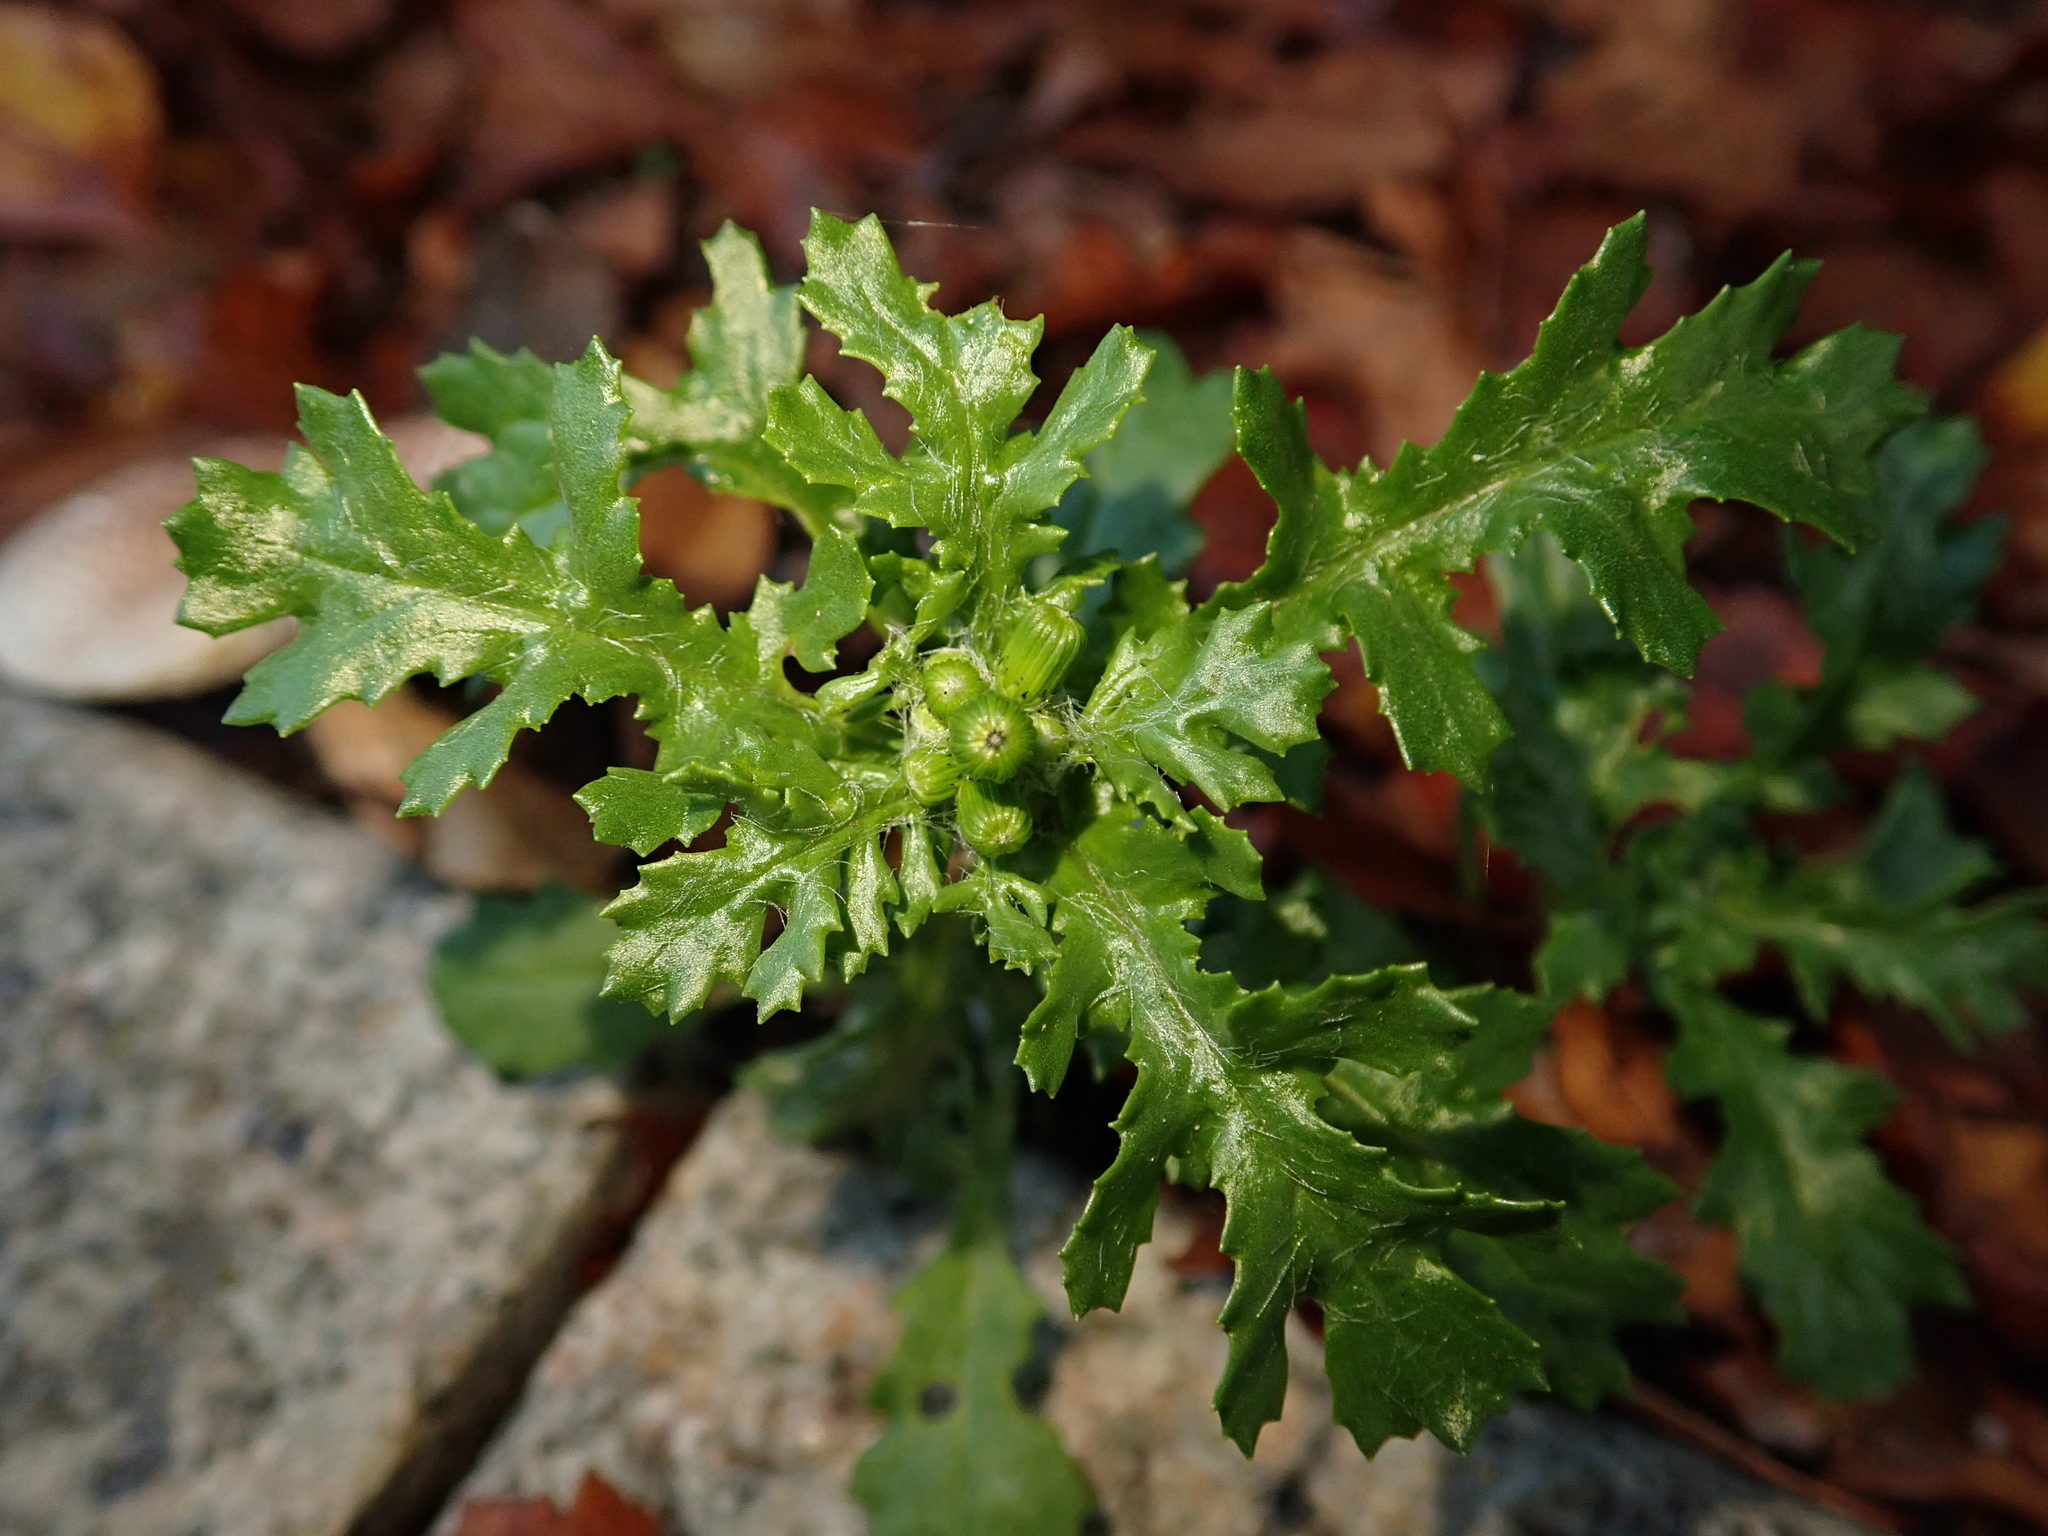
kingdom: Plantae
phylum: Tracheophyta
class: Magnoliopsida
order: Asterales
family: Asteraceae
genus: Senecio
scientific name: Senecio vulgaris
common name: Old-man-in-the-spring
